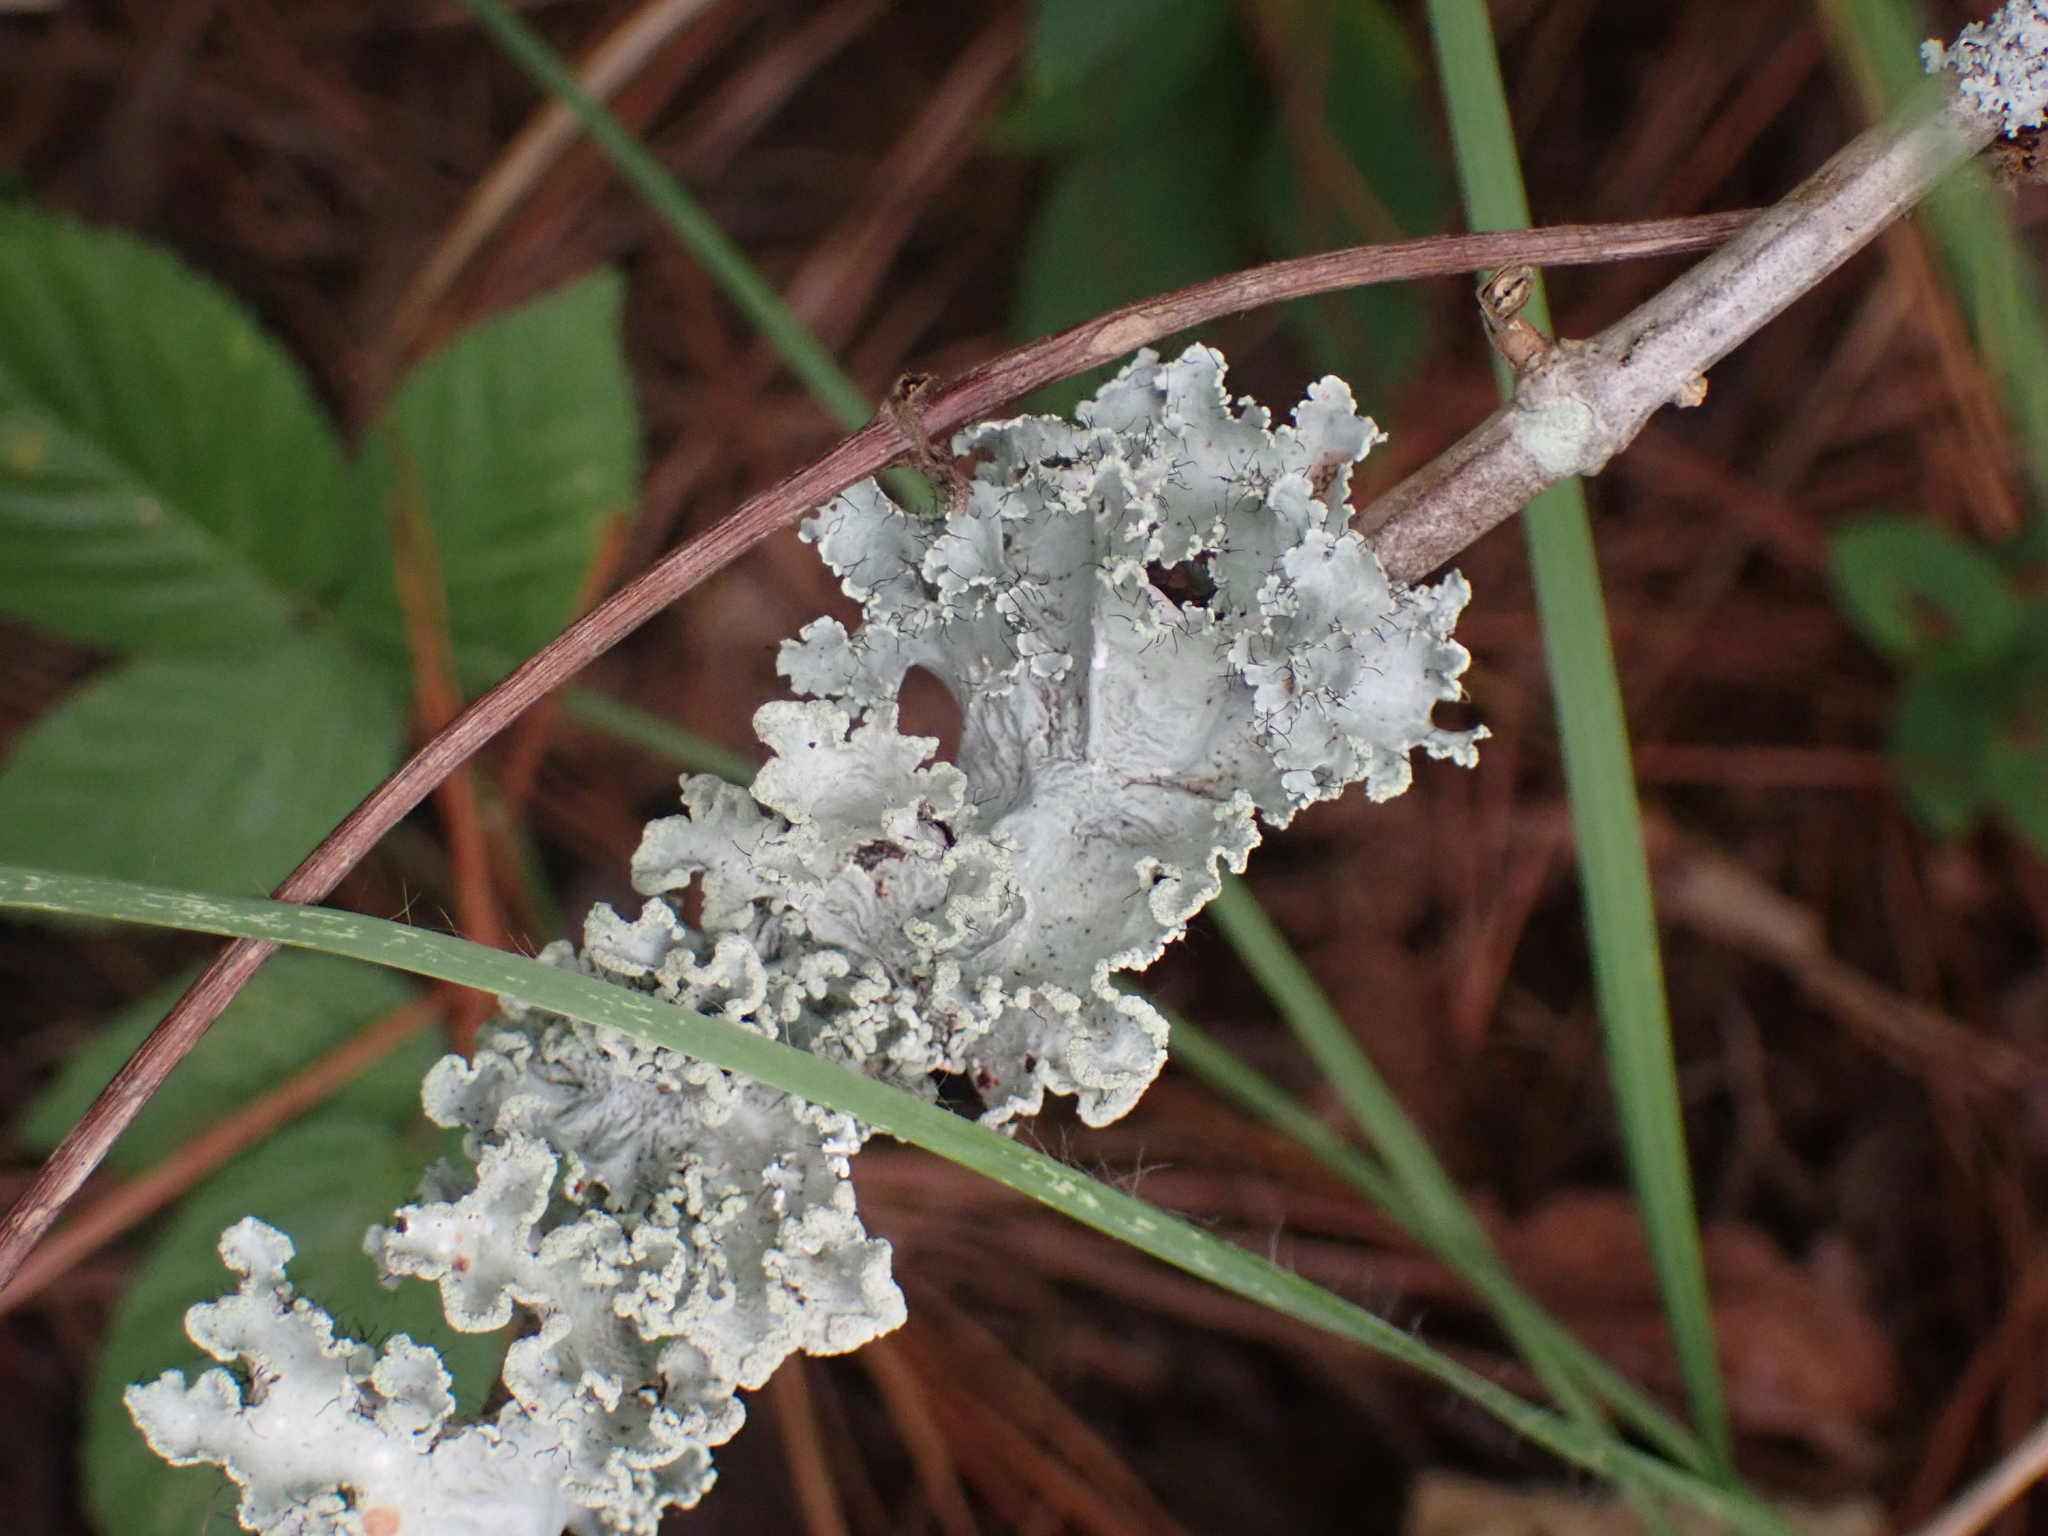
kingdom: Fungi
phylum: Ascomycota
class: Lecanoromycetes
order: Lecanorales
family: Parmeliaceae
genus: Parmotrema
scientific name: Parmotrema hypotropum
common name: Powdered ruffle lichen
